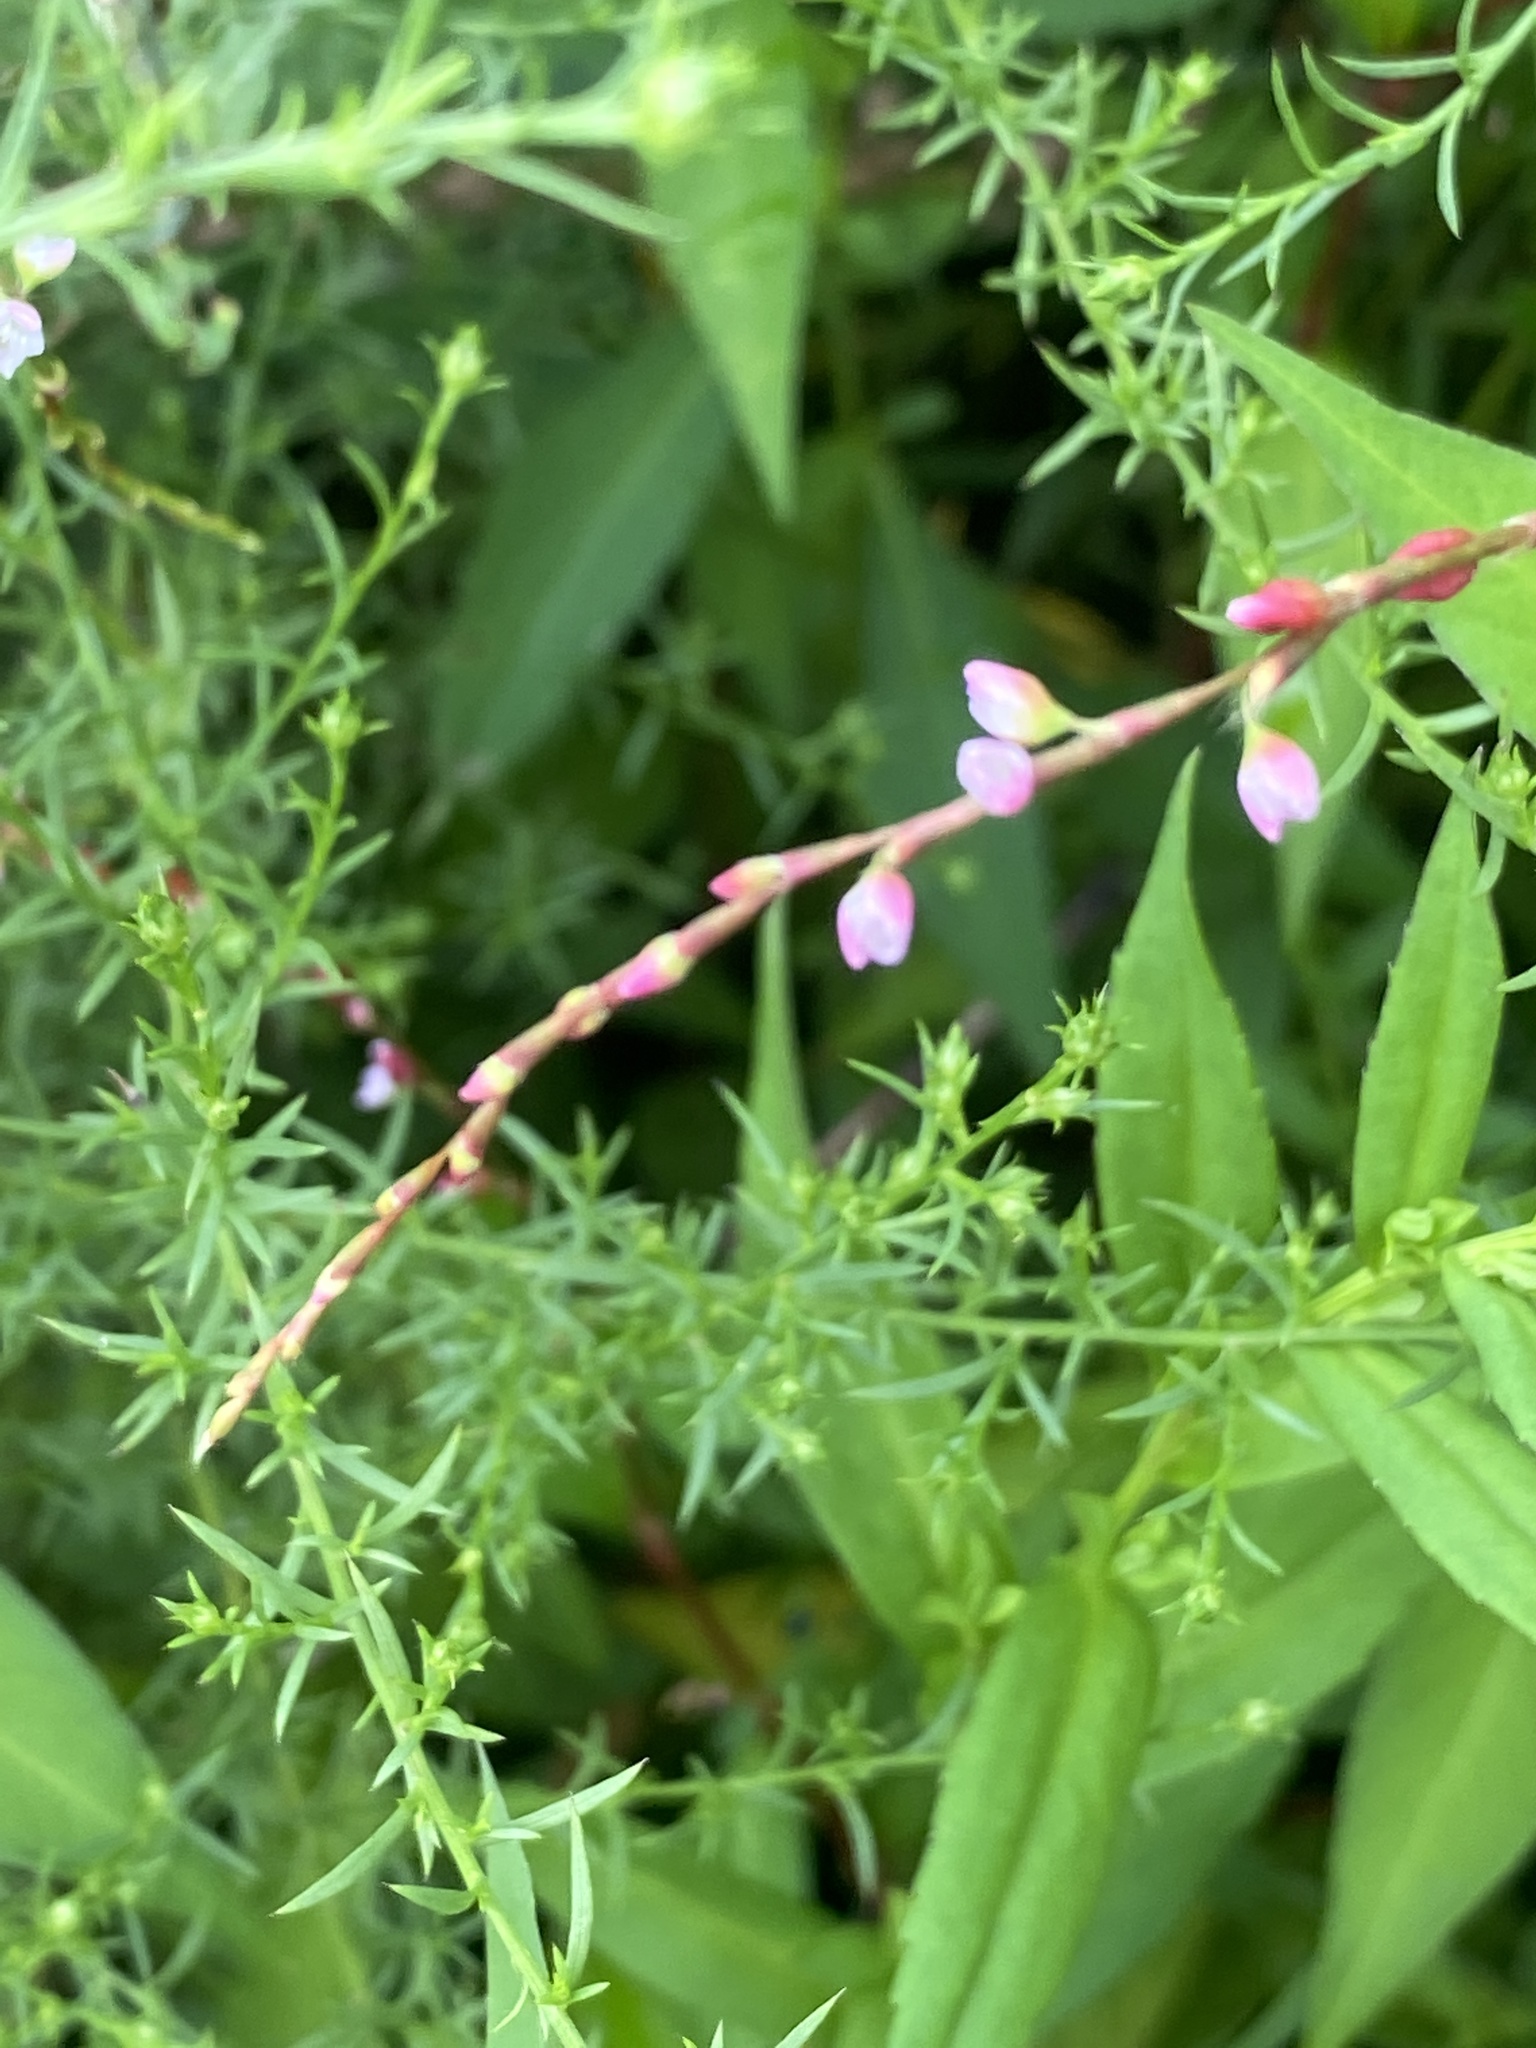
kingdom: Plantae
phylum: Tracheophyta
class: Magnoliopsida
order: Caryophyllales
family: Polygonaceae
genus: Persicaria
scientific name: Persicaria hydropiper
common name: Water-pepper
